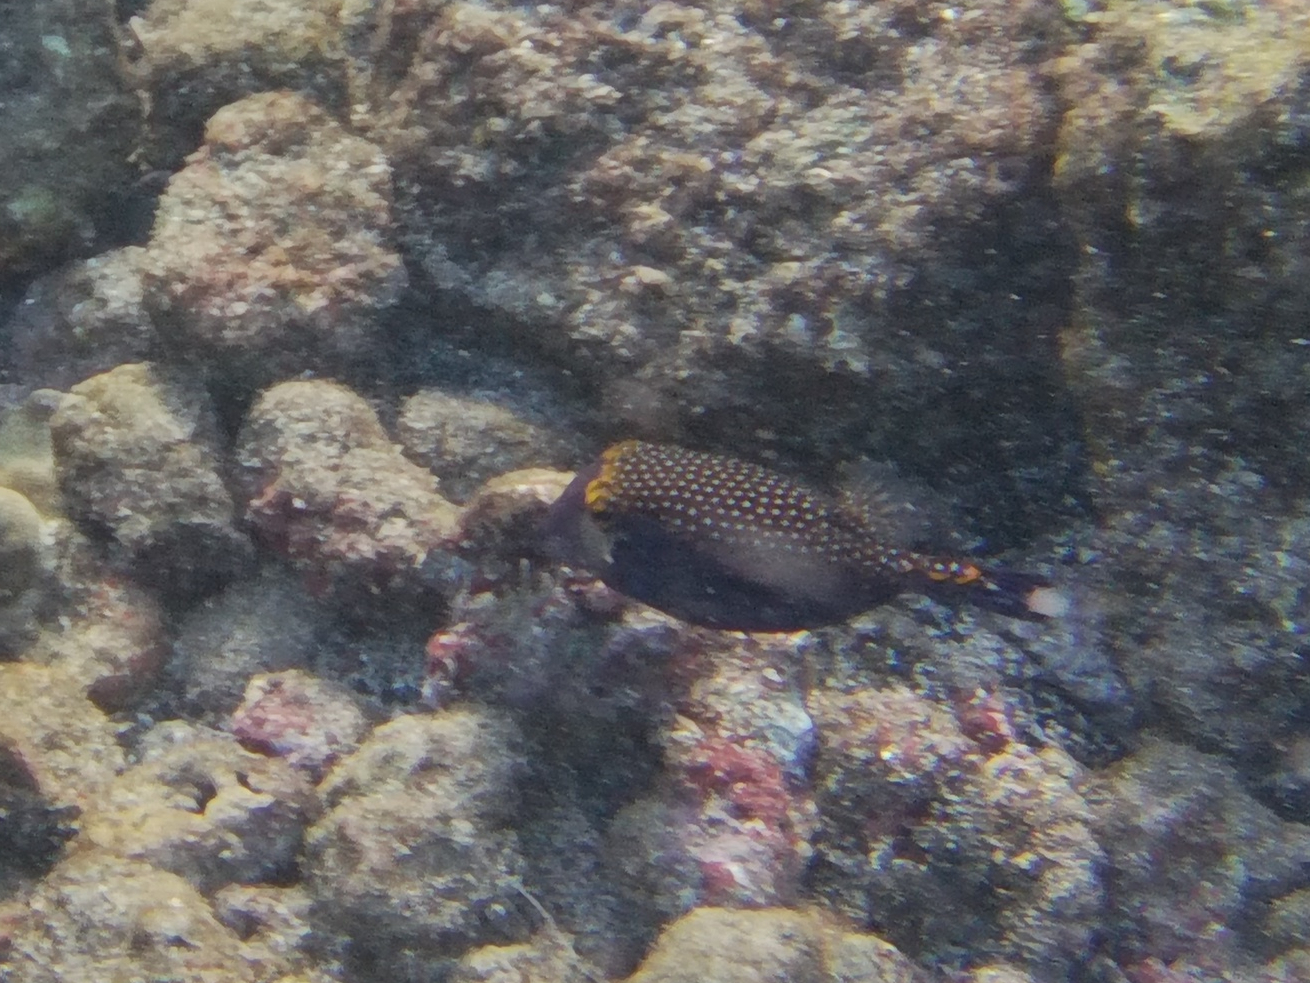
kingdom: Animalia
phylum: Chordata
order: Tetraodontiformes
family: Ostraciidae
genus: Ostracion
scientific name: Ostracion meleagris
